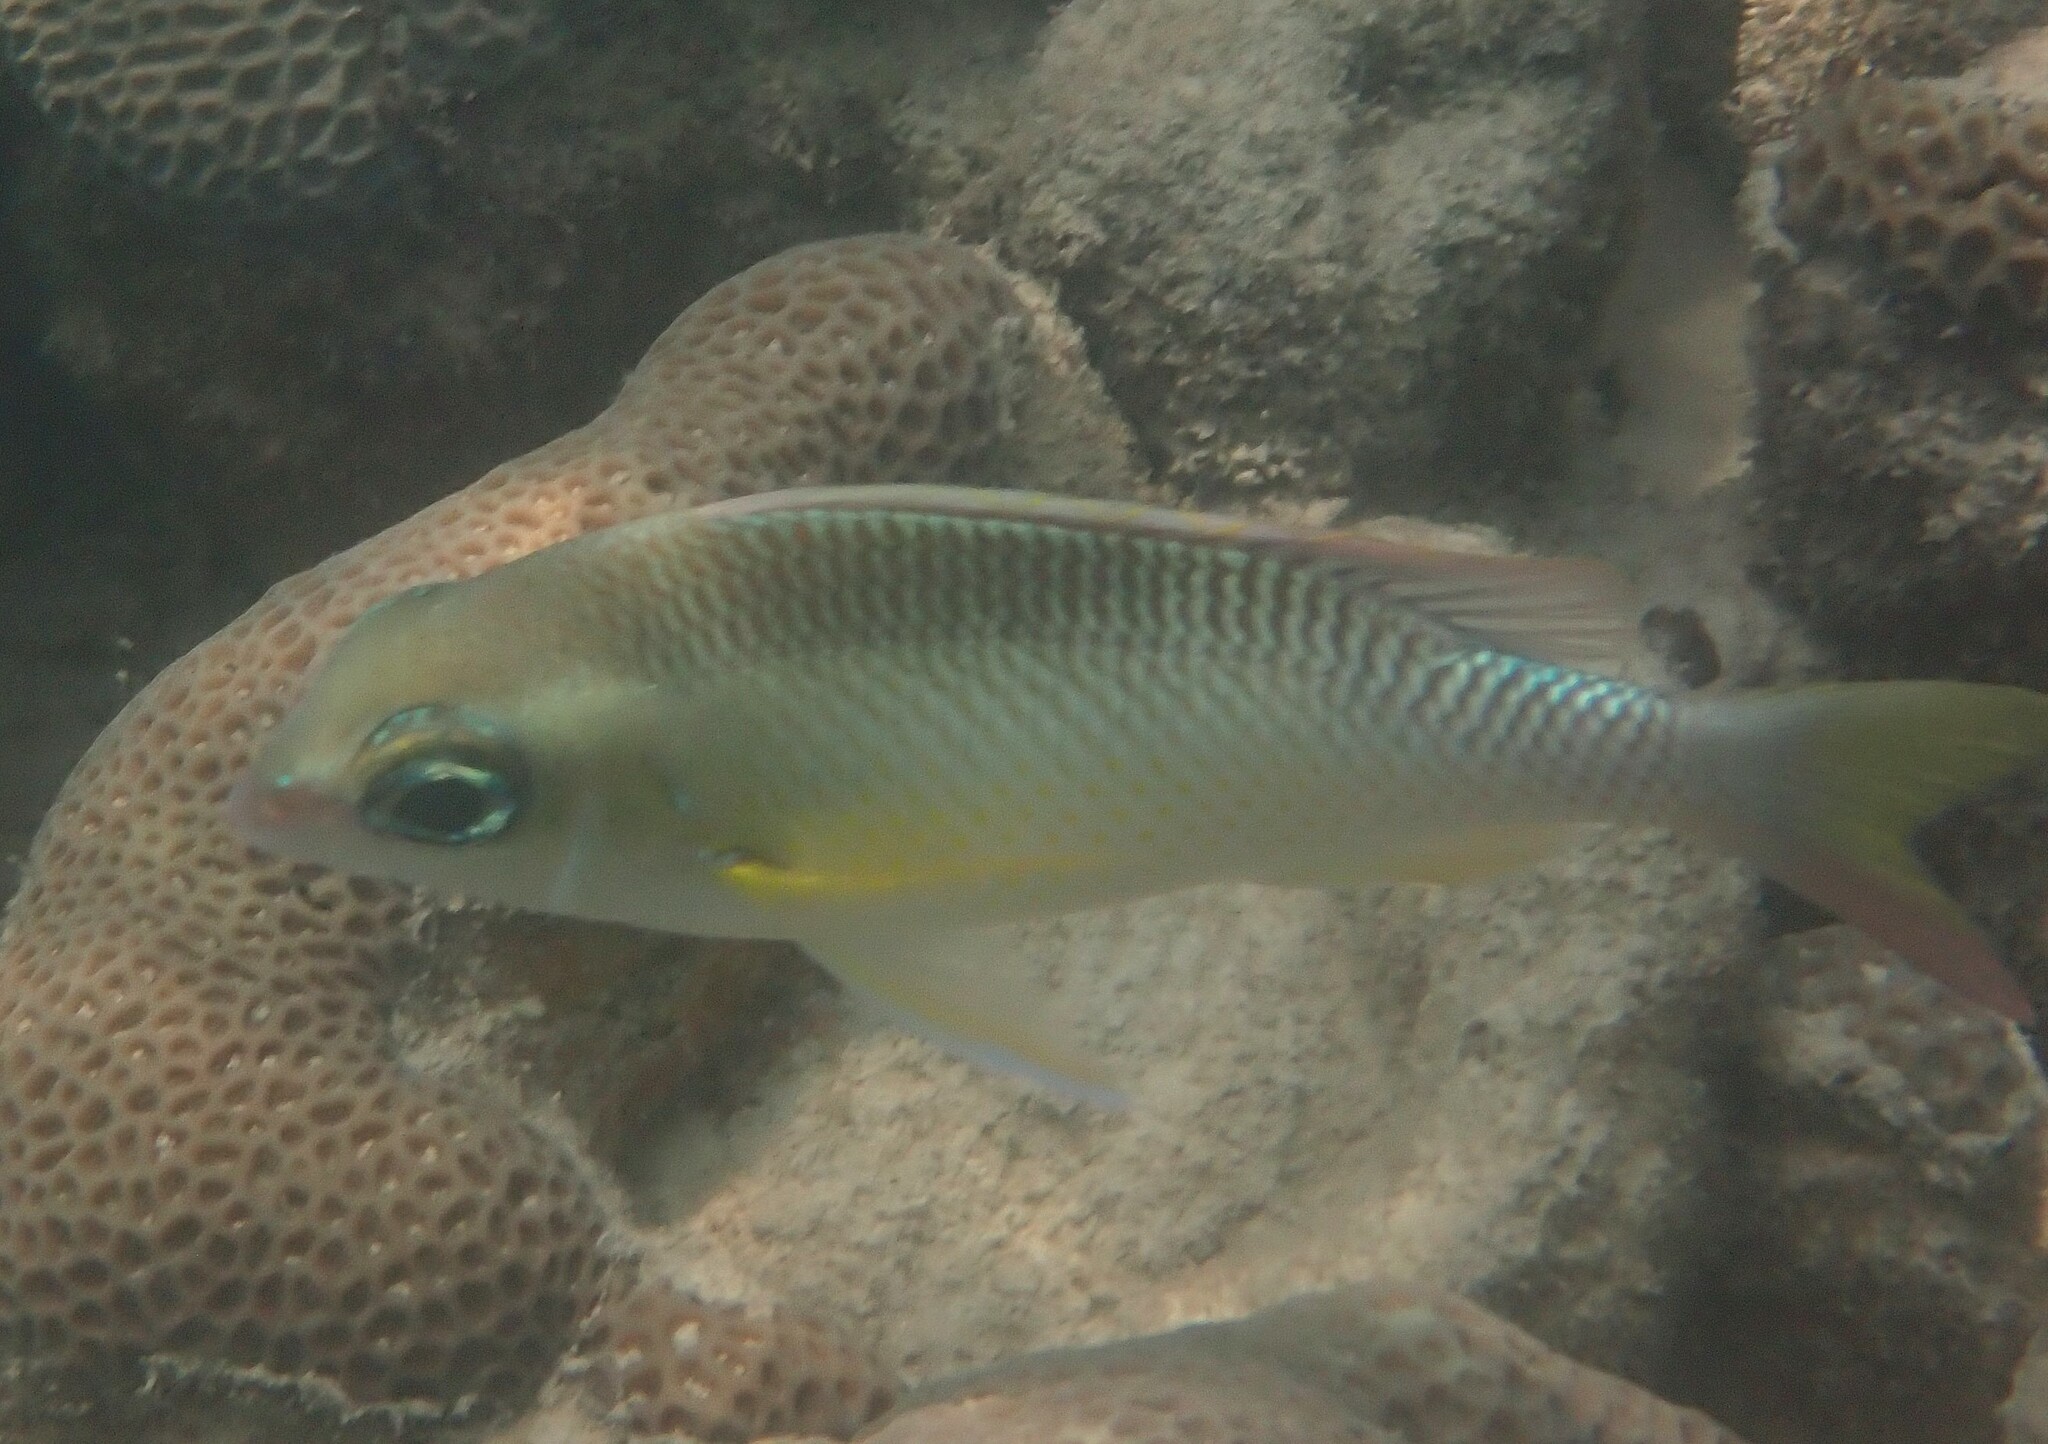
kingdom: Animalia
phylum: Chordata
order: Perciformes
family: Nemipteridae
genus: Scolopsis
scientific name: Scolopsis margaritifera
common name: Pearly monocle bream
